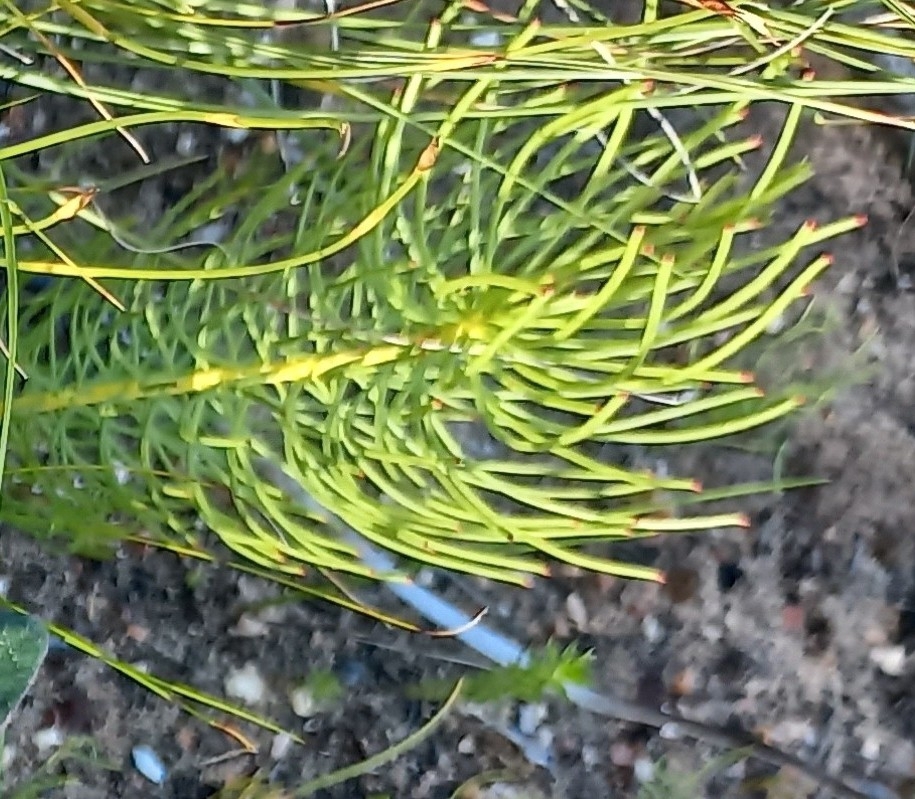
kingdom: Plantae
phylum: Tracheophyta
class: Magnoliopsida
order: Proteales
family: Proteaceae
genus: Leucadendron
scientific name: Leucadendron platyspermum
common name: Plate-seed conebush
